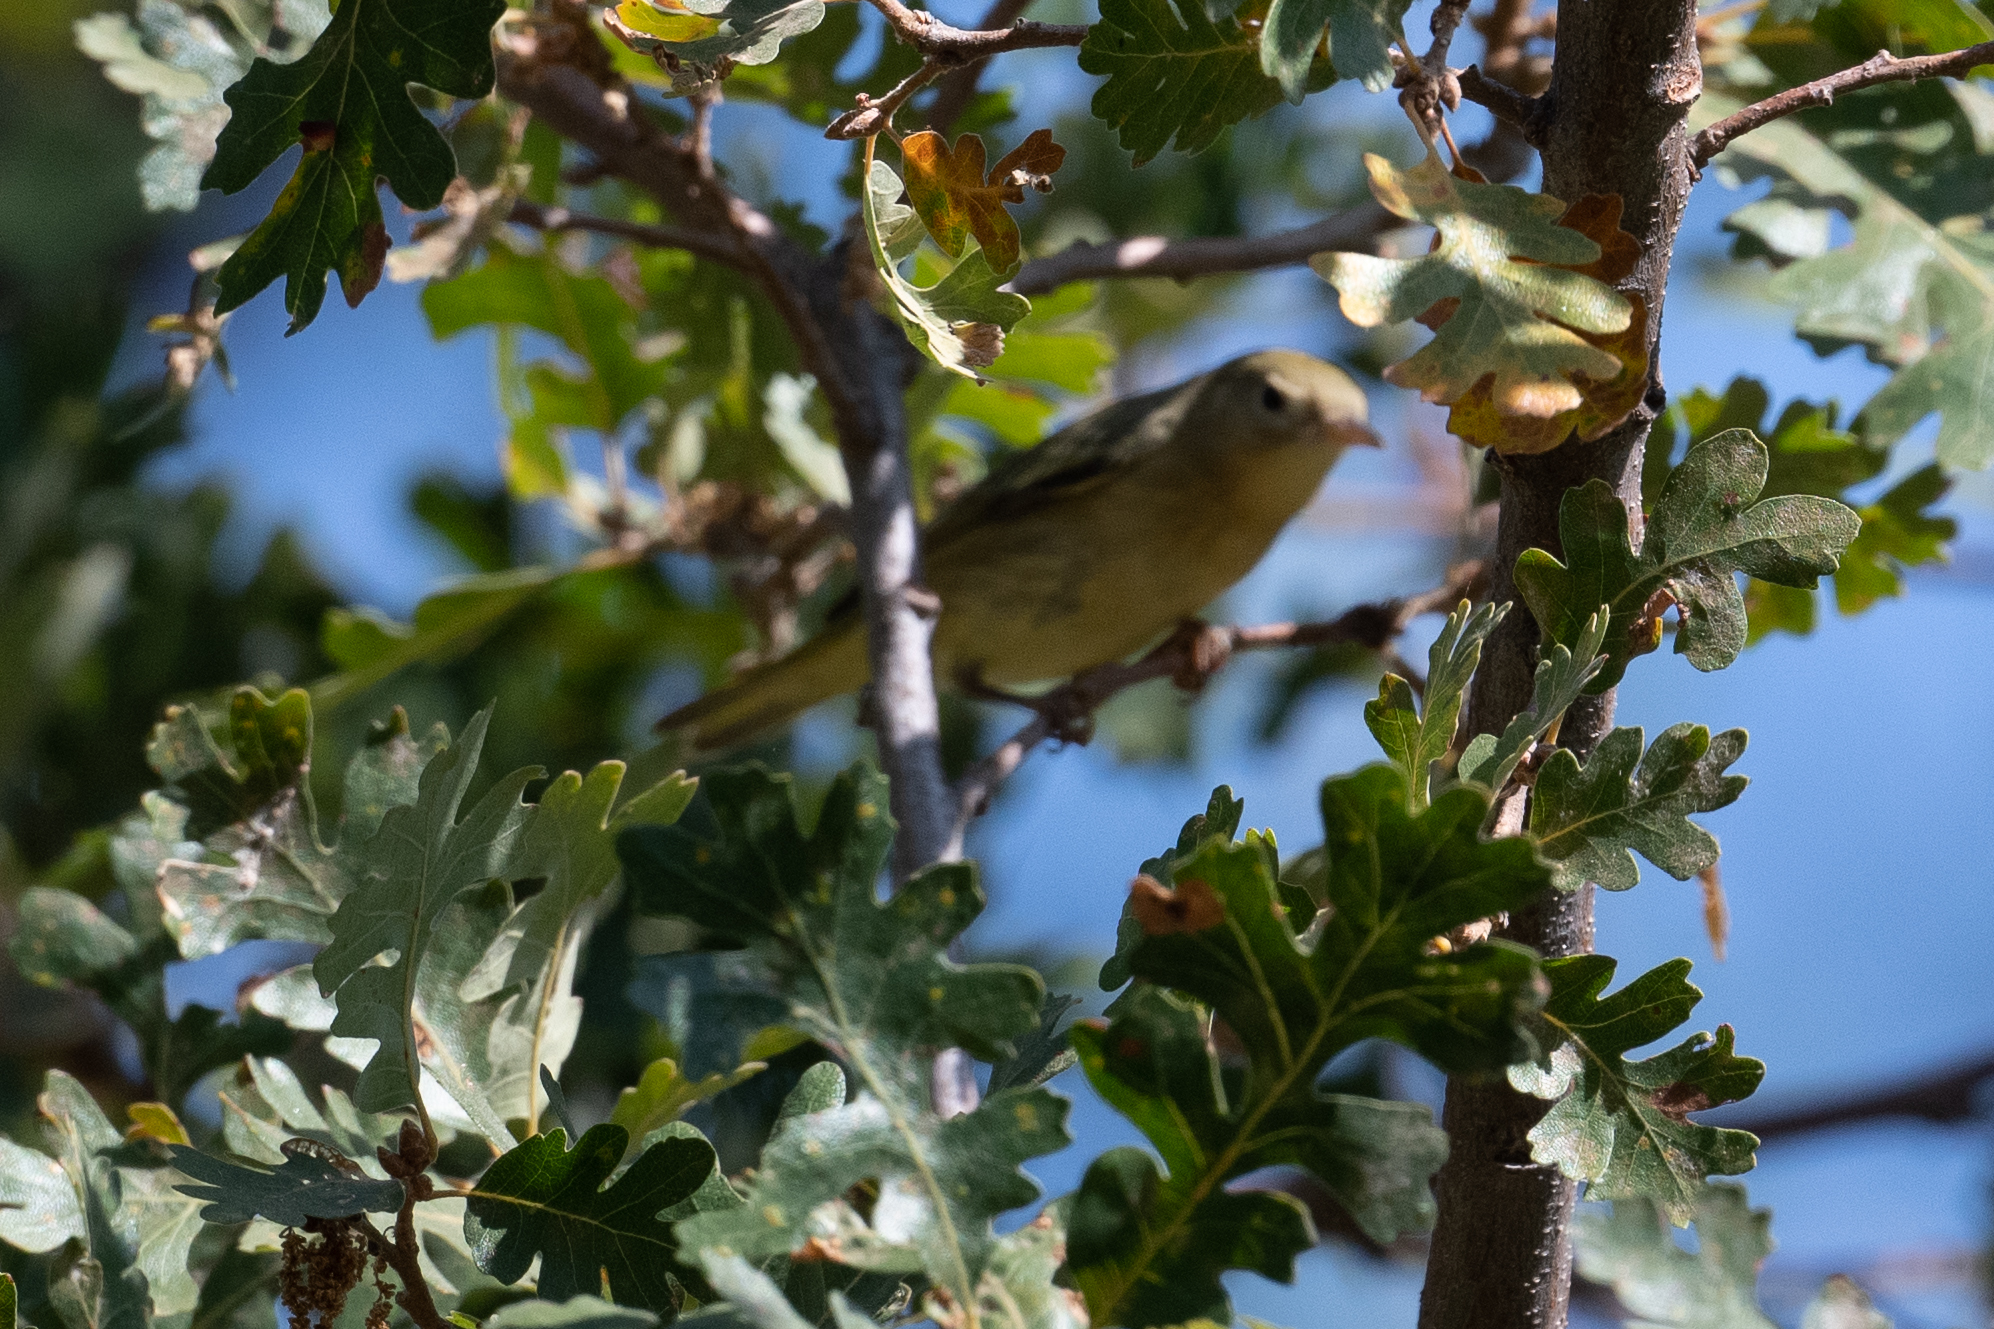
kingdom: Animalia
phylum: Chordata
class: Aves
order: Passeriformes
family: Parulidae
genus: Setophaga
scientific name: Setophaga petechia
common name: Yellow warbler
